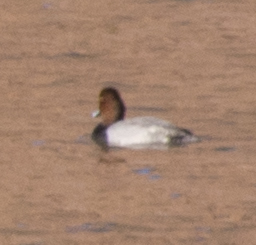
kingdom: Animalia
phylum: Chordata
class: Aves
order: Anseriformes
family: Anatidae
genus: Aythya
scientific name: Aythya americana
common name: Redhead
